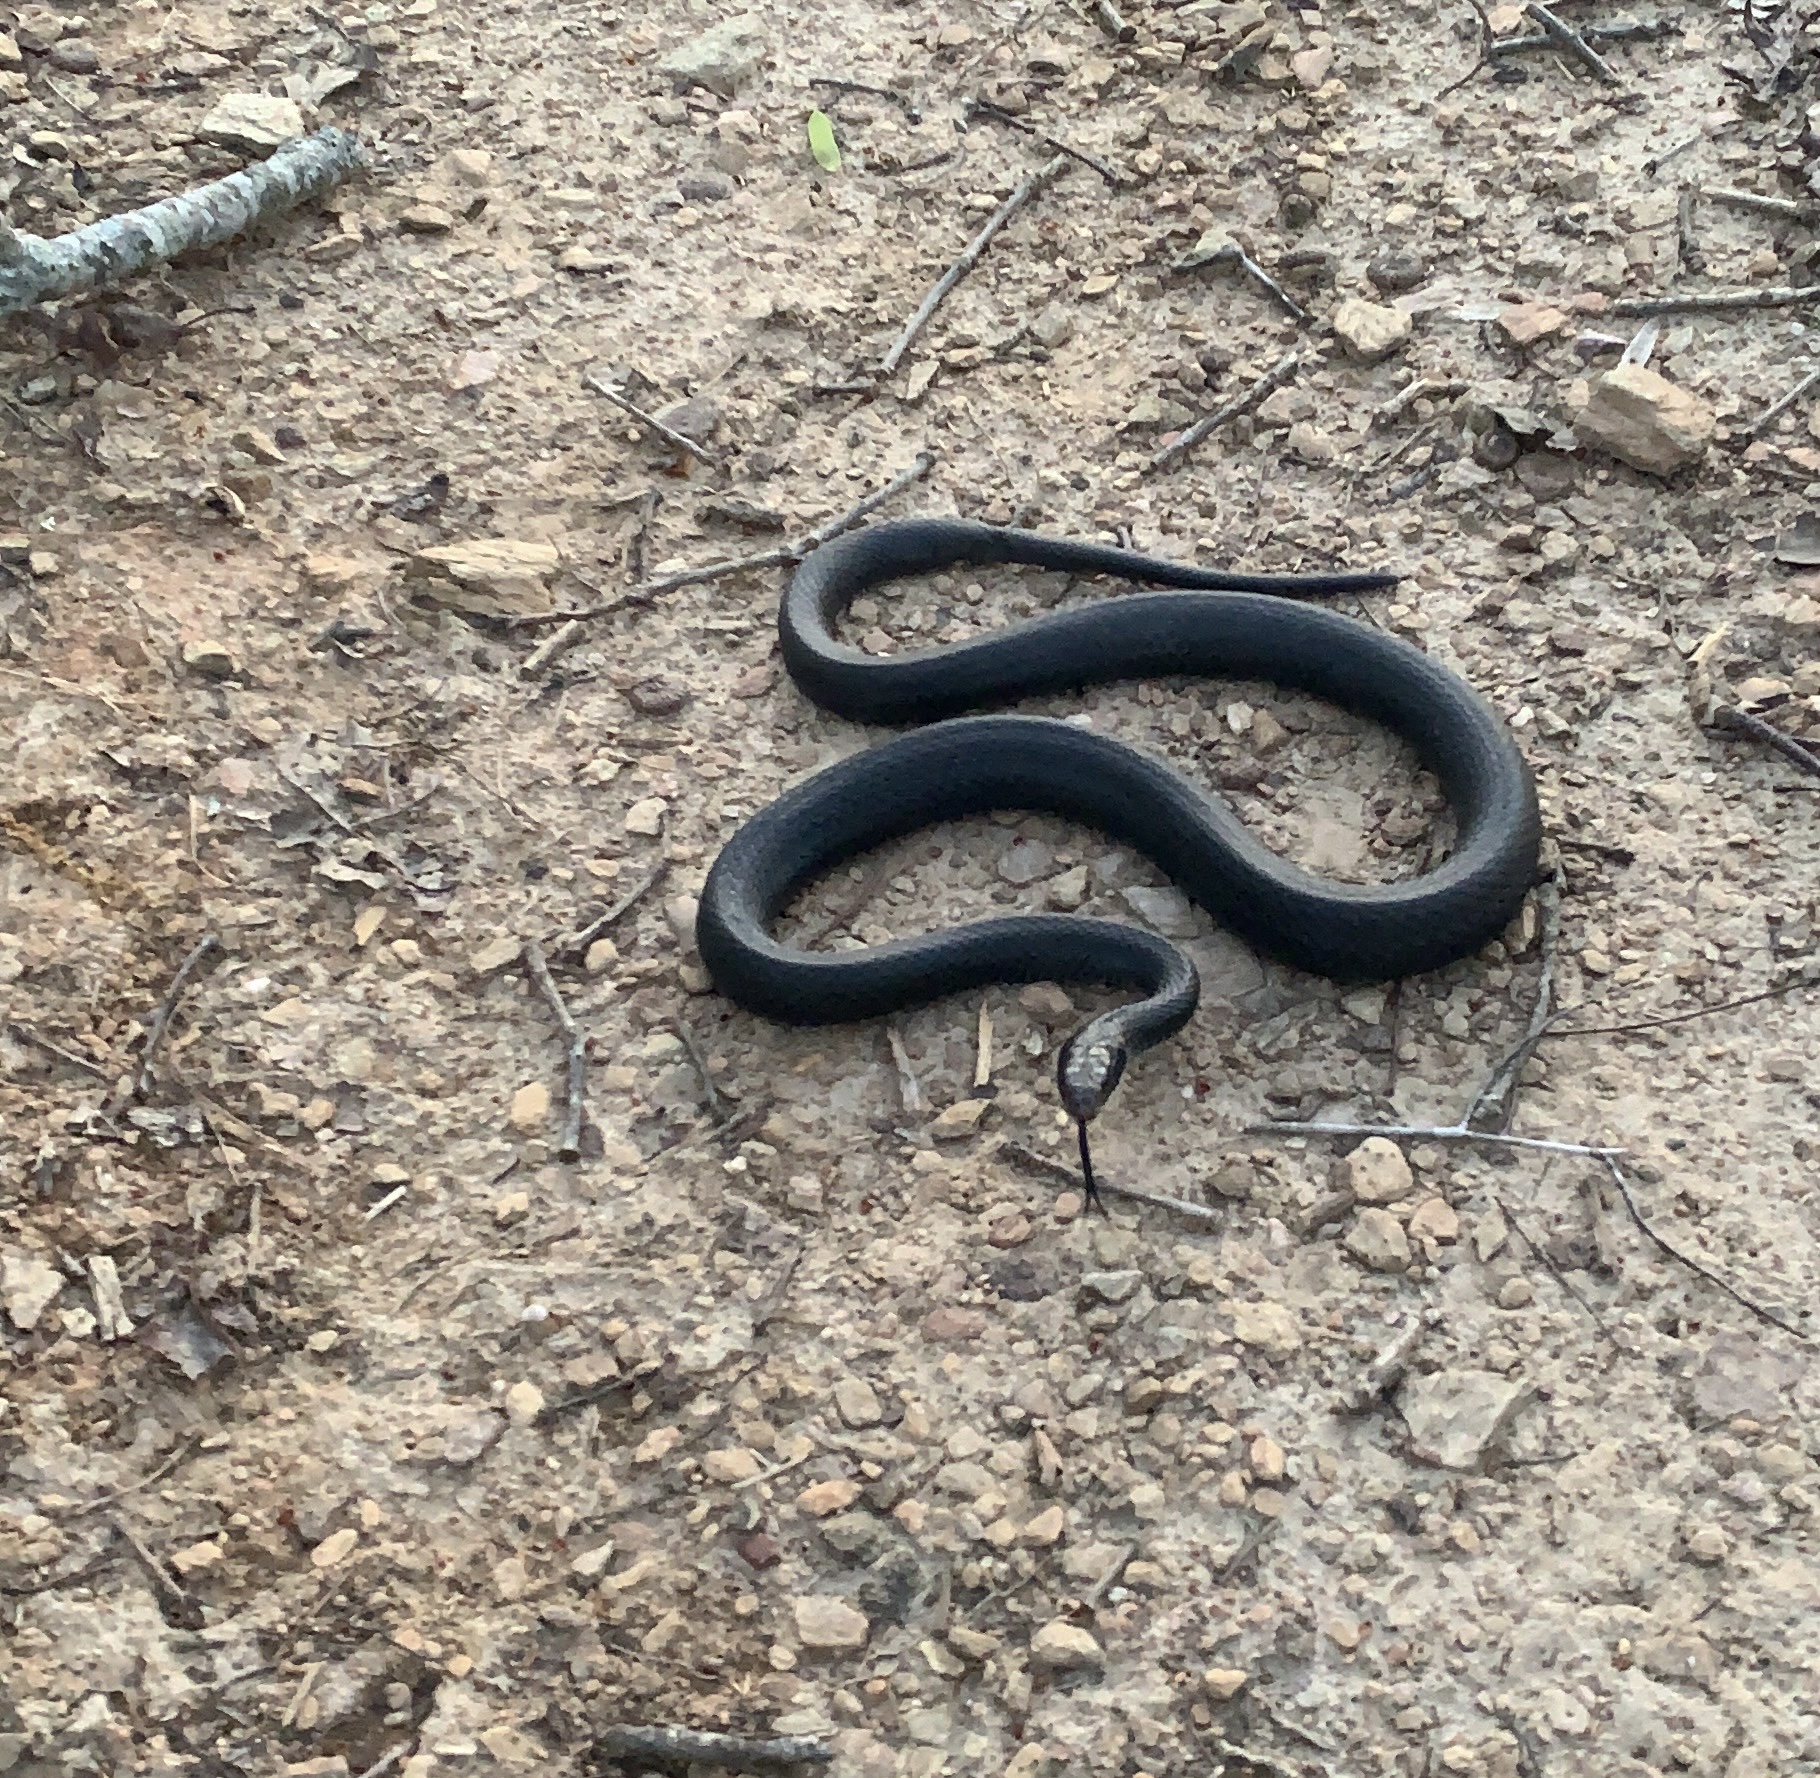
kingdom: Animalia
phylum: Chordata
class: Squamata
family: Colubridae
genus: Coluber
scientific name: Coluber constrictor
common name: Eastern racer
